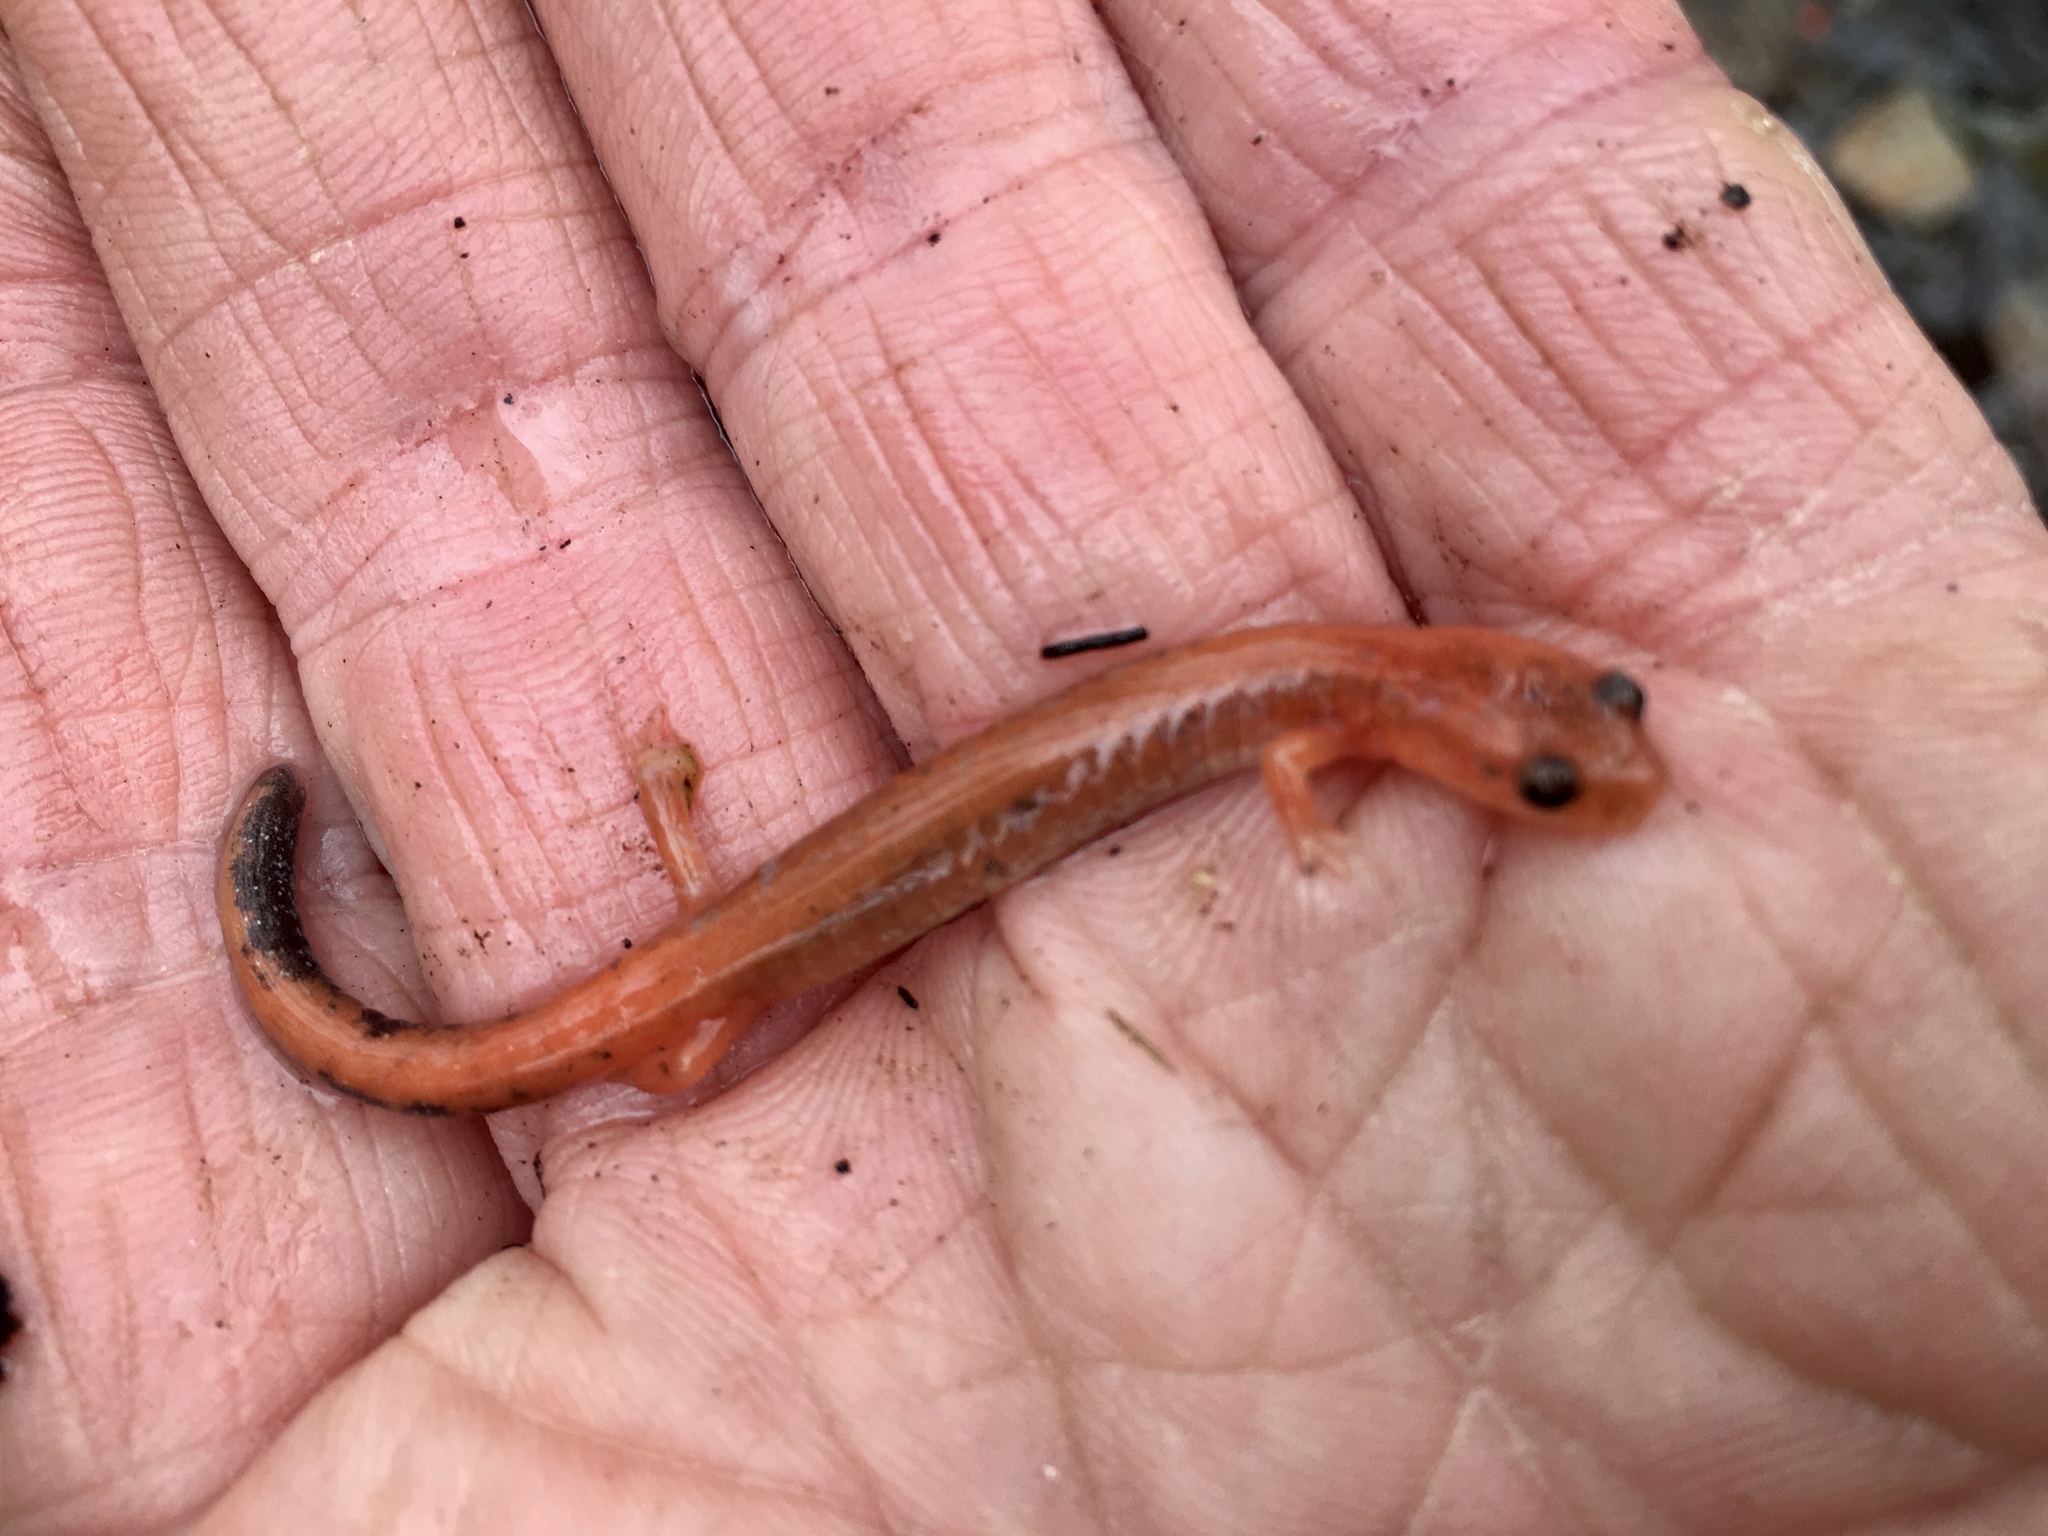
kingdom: Animalia
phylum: Chordata
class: Amphibia
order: Caudata
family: Plethodontidae
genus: Plethodon
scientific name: Plethodon cinereus
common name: Redback salamander
